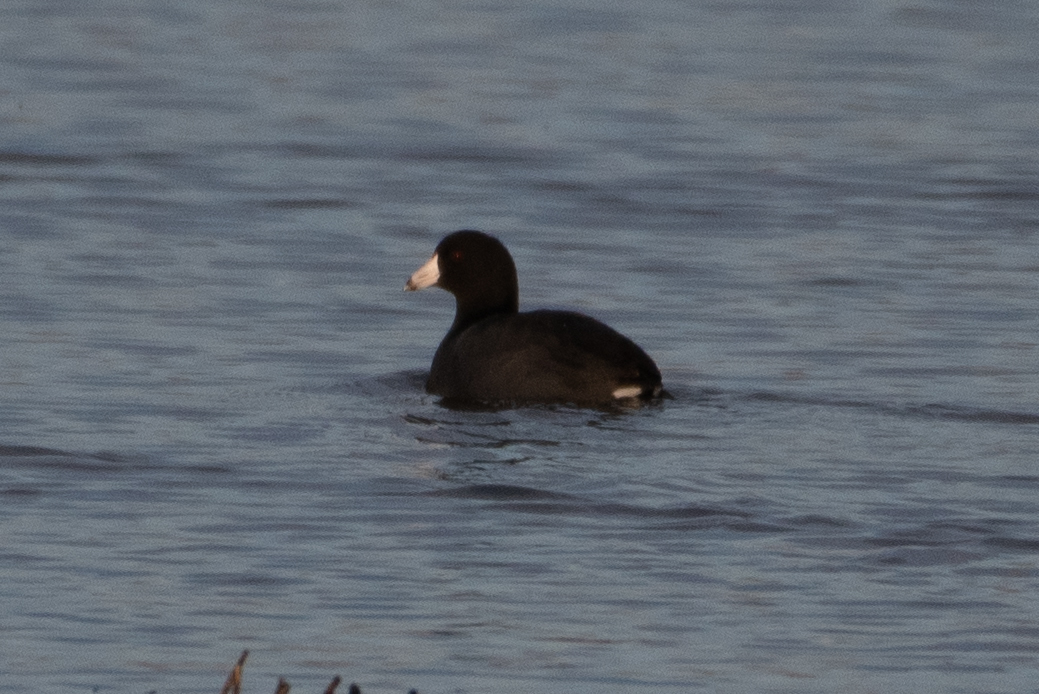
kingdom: Animalia
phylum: Chordata
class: Aves
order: Gruiformes
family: Rallidae
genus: Fulica
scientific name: Fulica americana
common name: American coot
